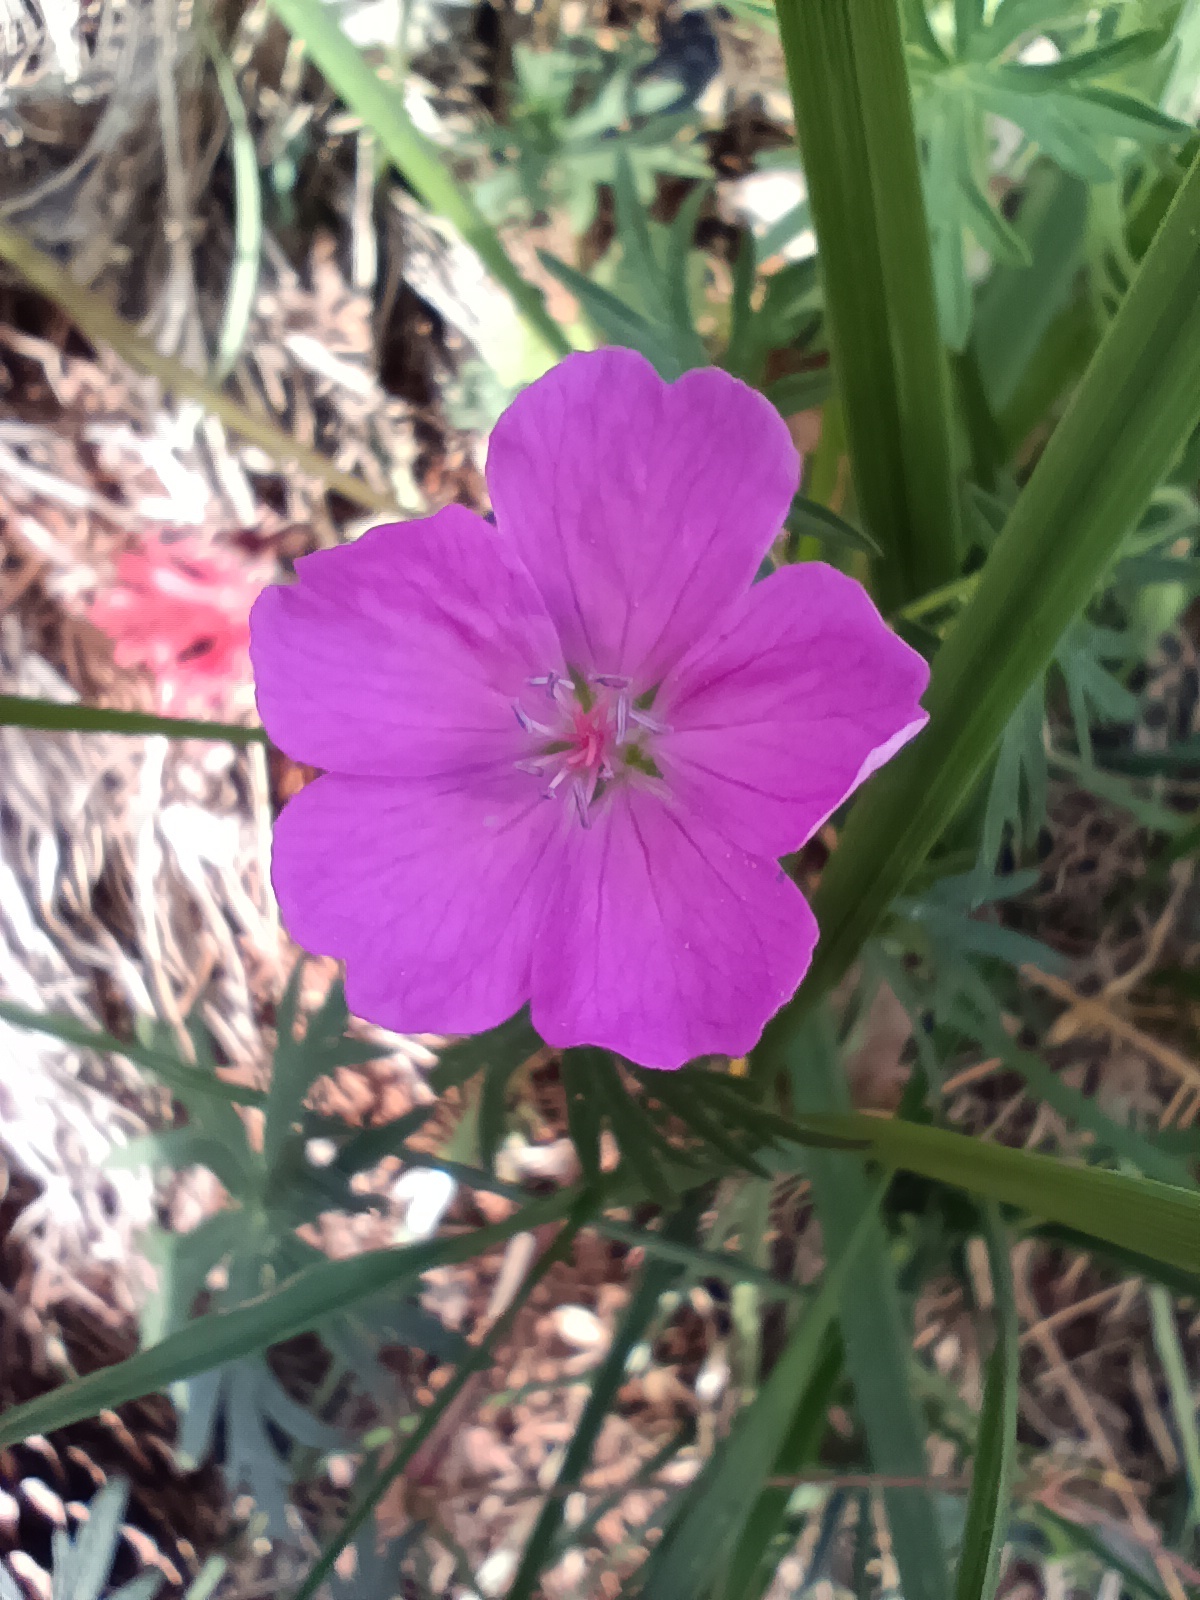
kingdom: Plantae
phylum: Tracheophyta
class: Magnoliopsida
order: Geraniales
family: Geraniaceae
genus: Geranium
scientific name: Geranium sanguineum
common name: Bloody crane's-bill
